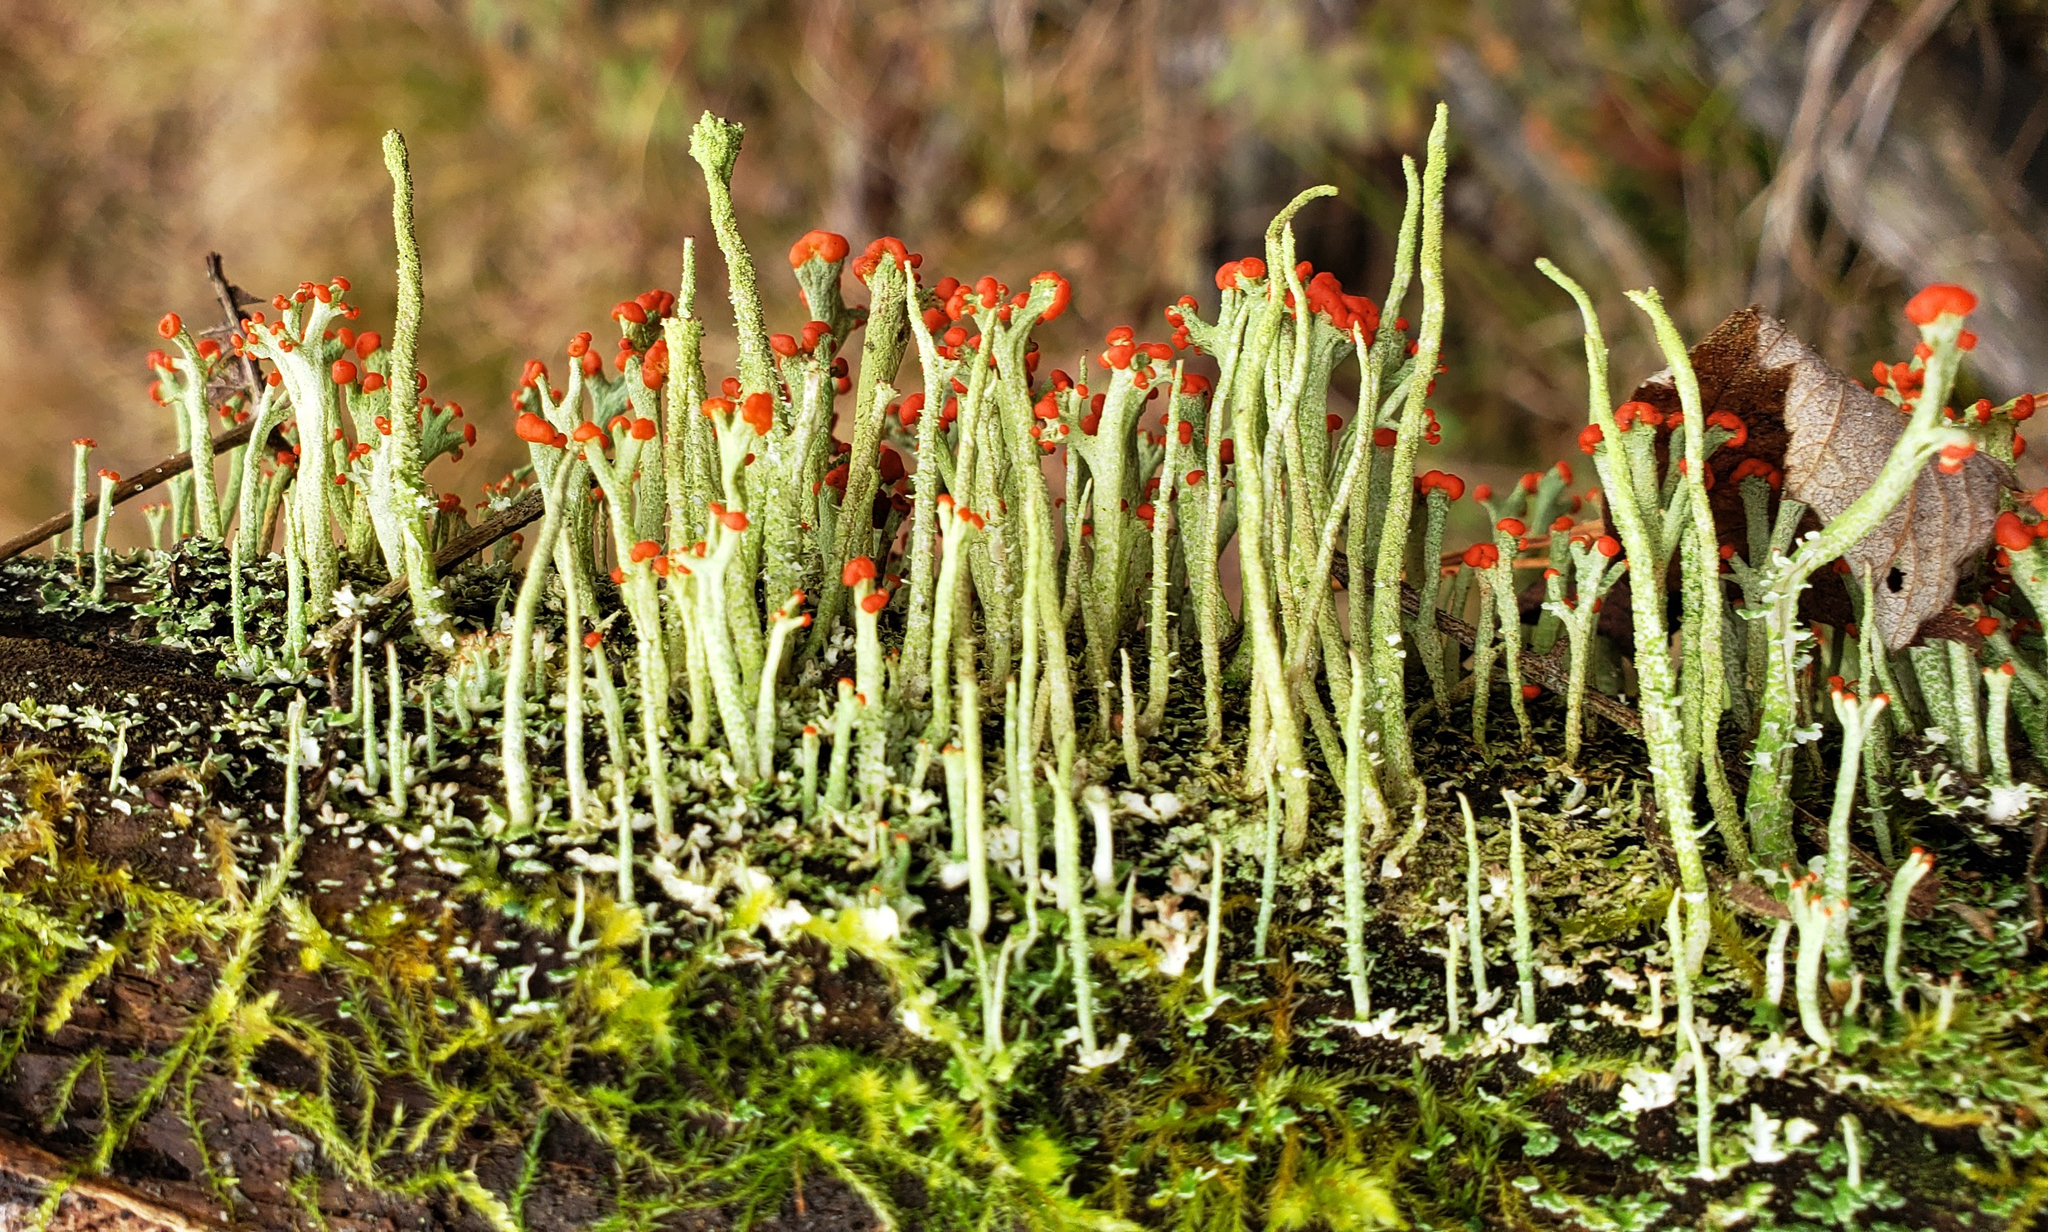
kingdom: Fungi
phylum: Ascomycota
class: Lecanoromycetes
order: Lecanorales
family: Cladoniaceae
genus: Cladonia
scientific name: Cladonia cristatella
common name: British soldier lichen
